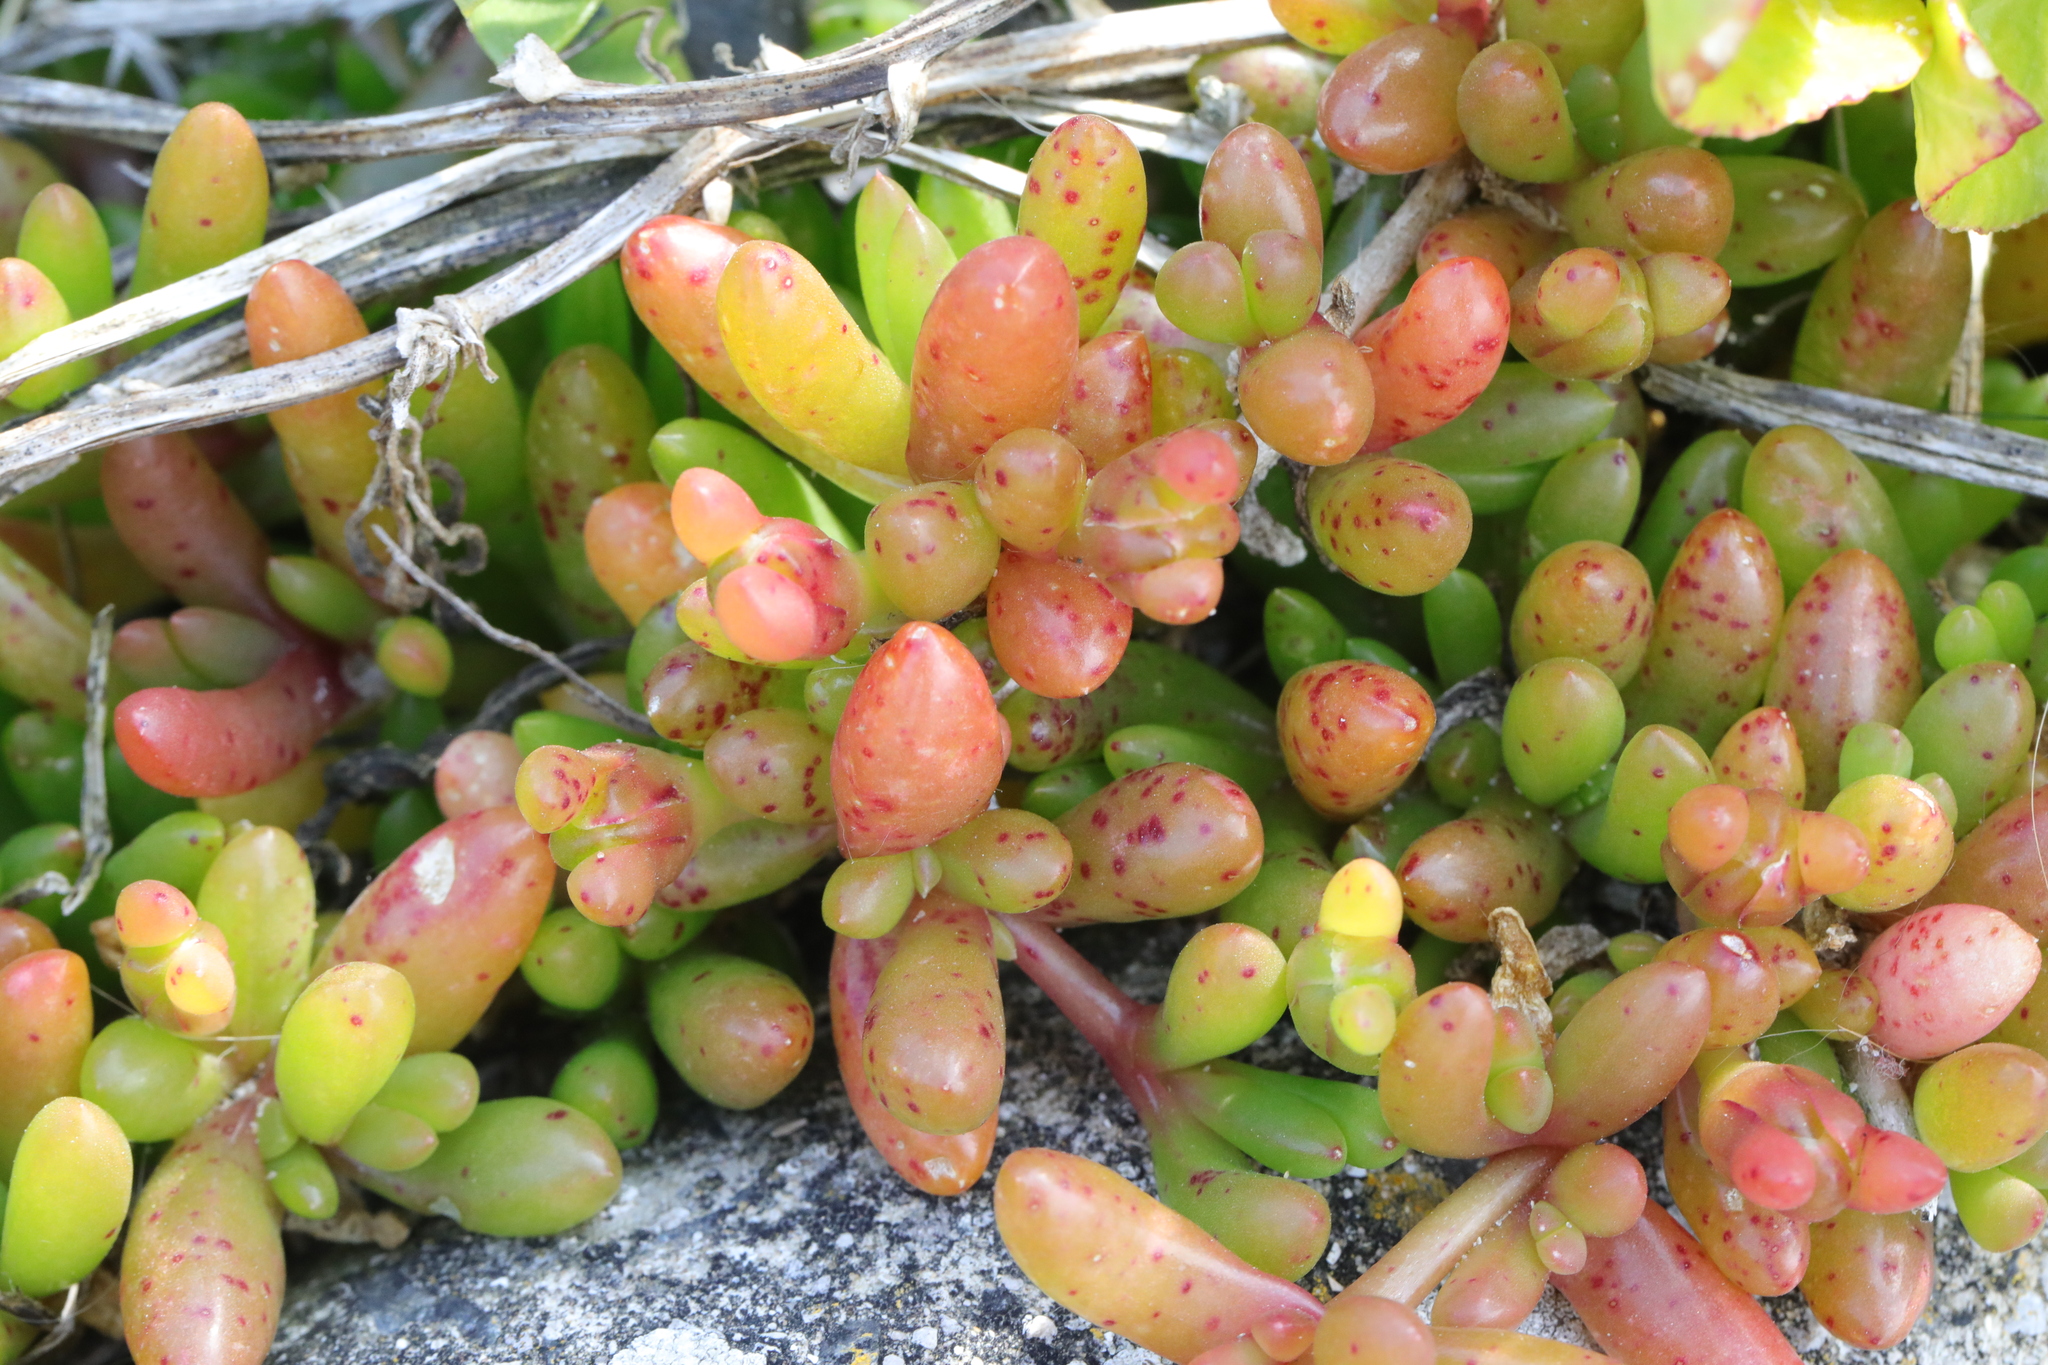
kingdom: Plantae
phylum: Tracheophyta
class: Magnoliopsida
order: Caryophyllales
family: Aizoaceae
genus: Disphyma
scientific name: Disphyma crassifolium
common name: Purple dewplant
